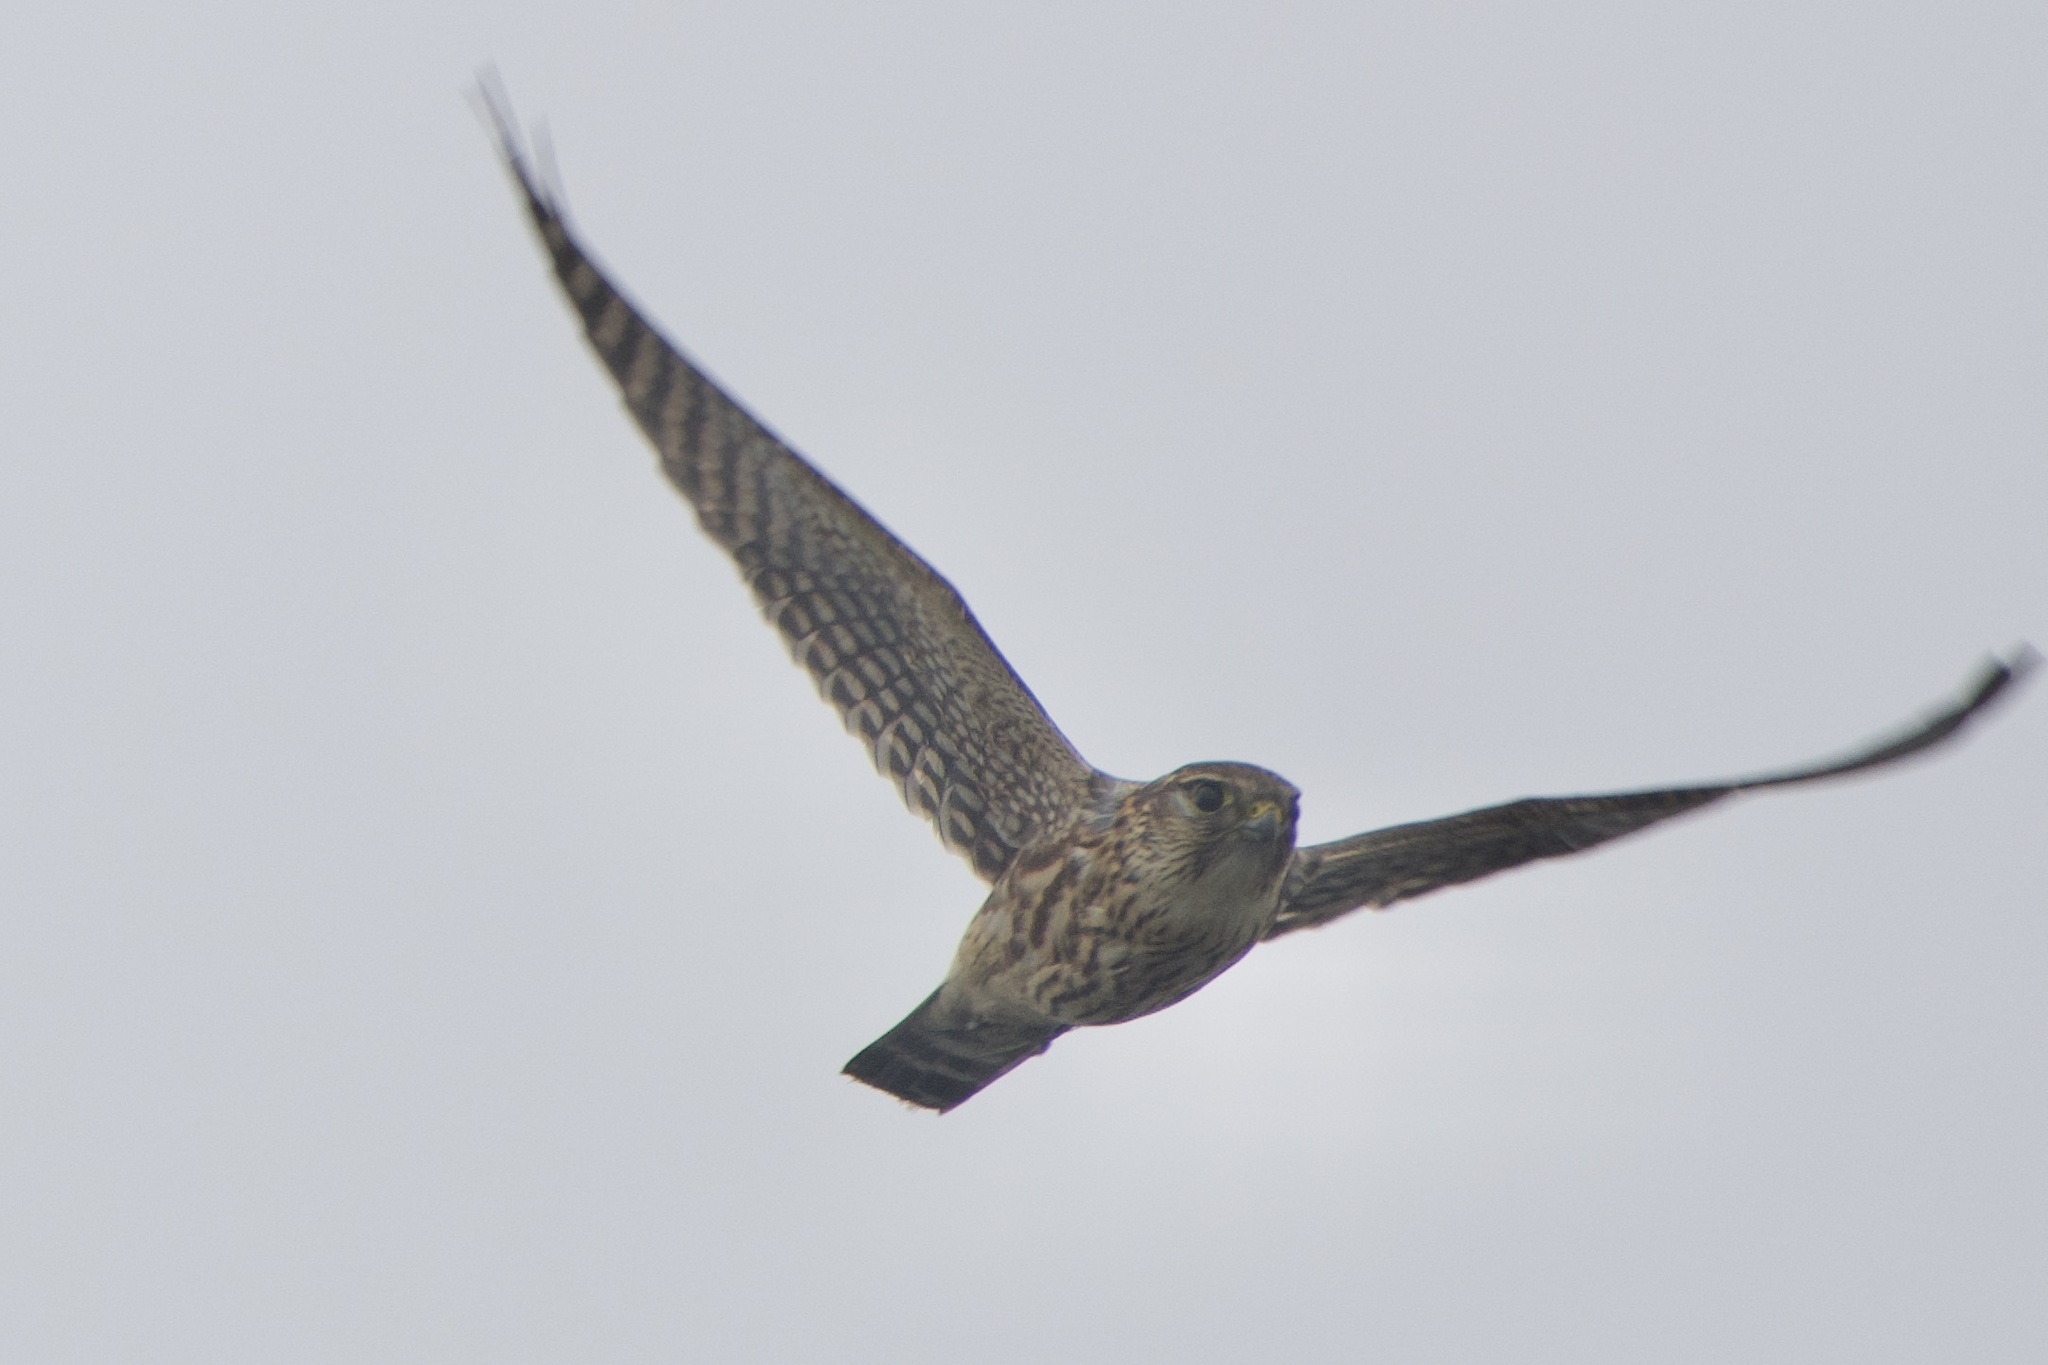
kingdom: Animalia
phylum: Chordata
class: Aves
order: Falconiformes
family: Falconidae
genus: Falco
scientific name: Falco columbarius
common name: Merlin
